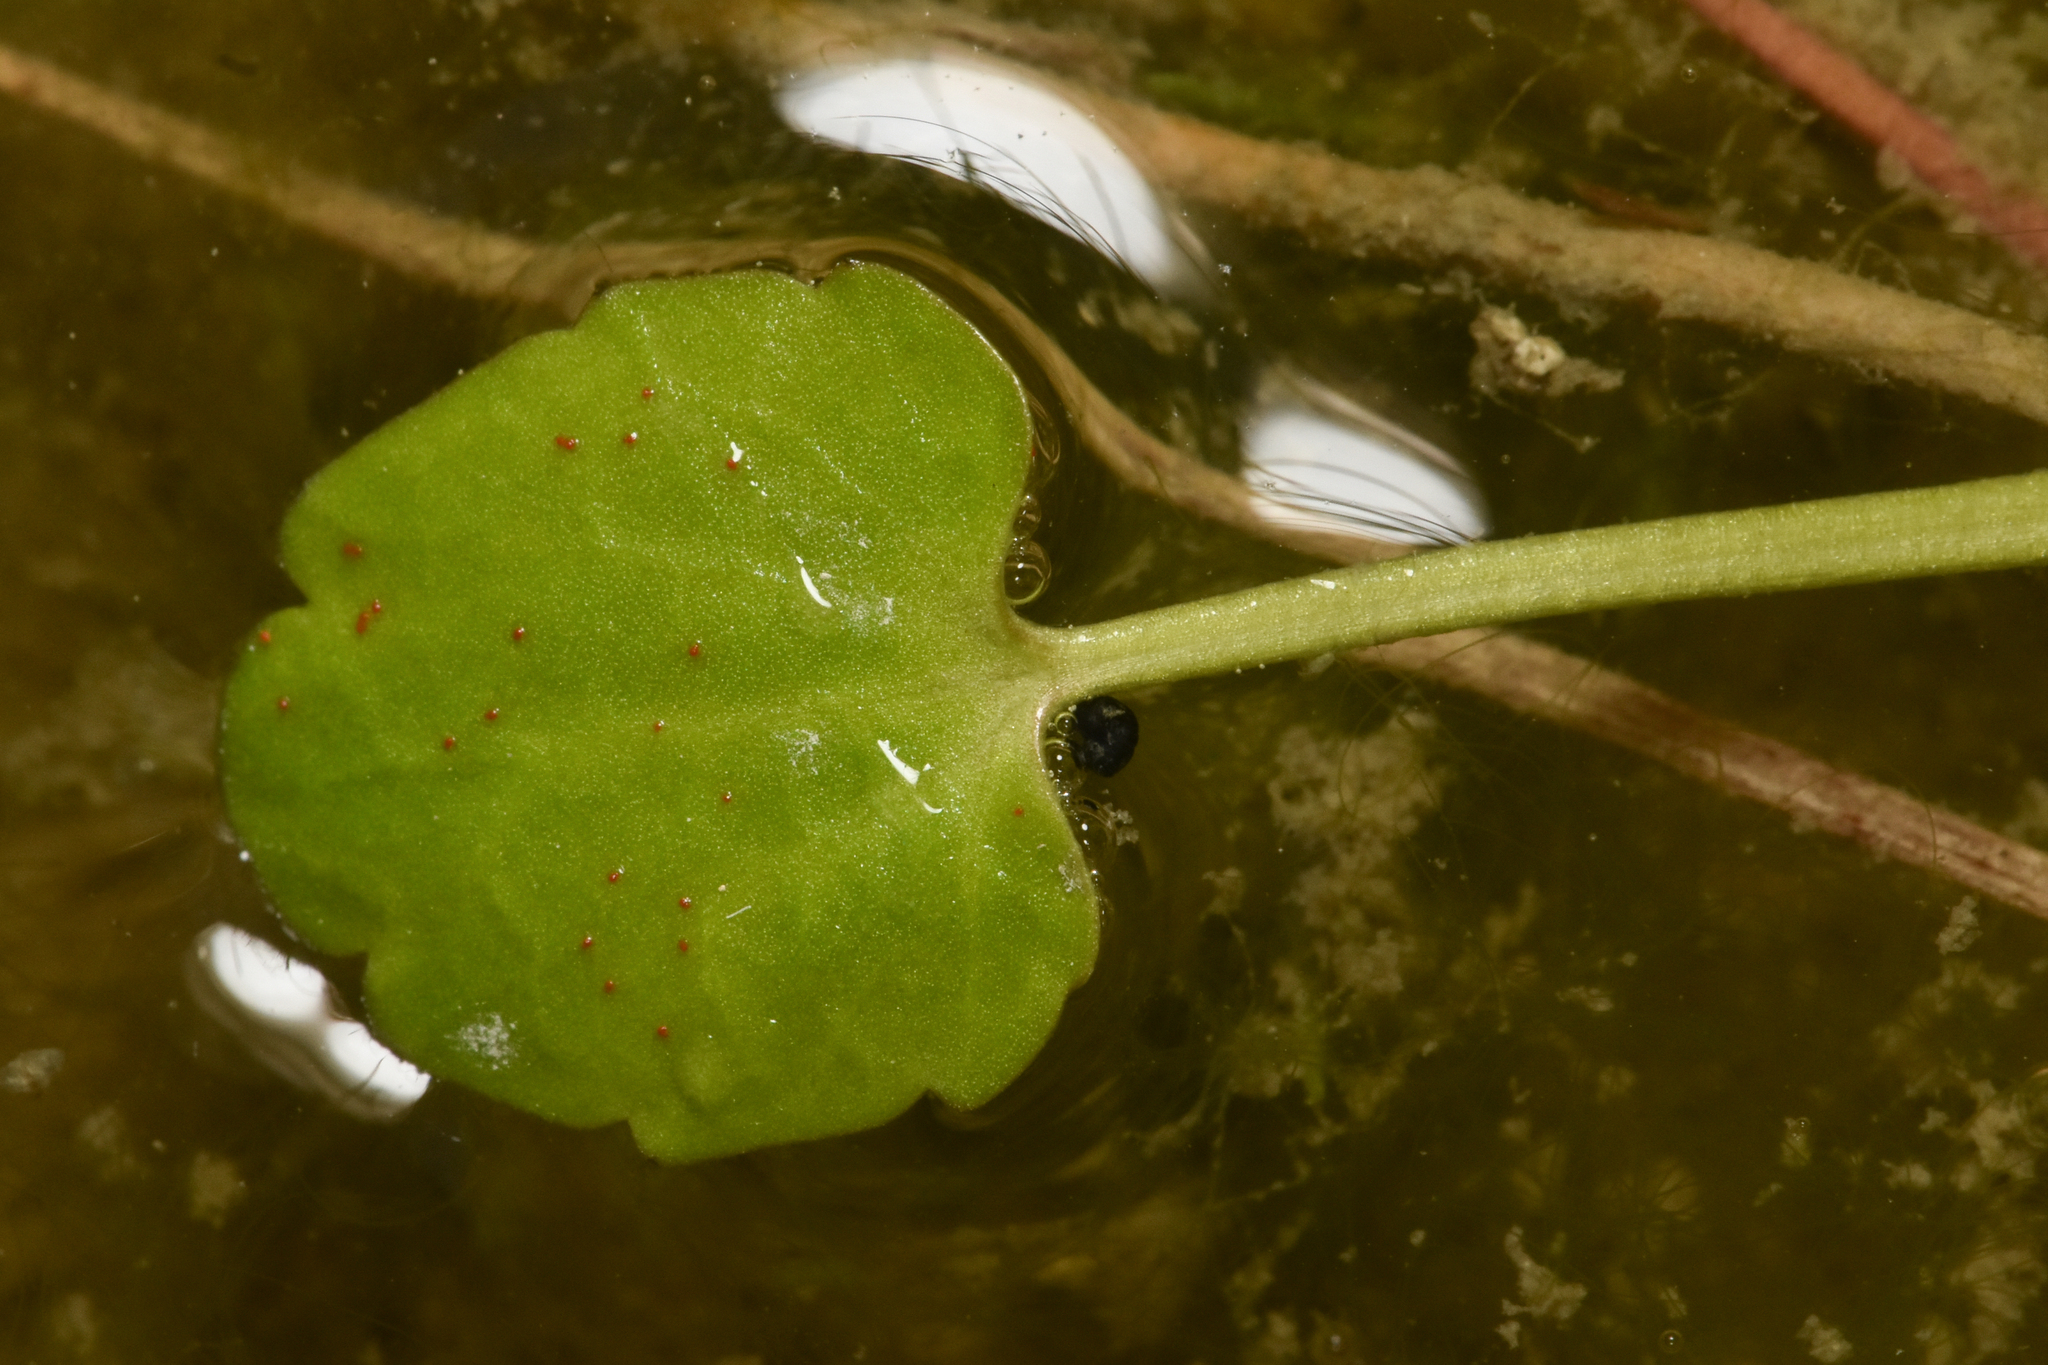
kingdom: Plantae
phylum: Tracheophyta
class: Magnoliopsida
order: Ranunculales
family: Ranunculaceae
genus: Halerpestes
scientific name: Halerpestes cymbalaria
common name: Seaside crowfoot
